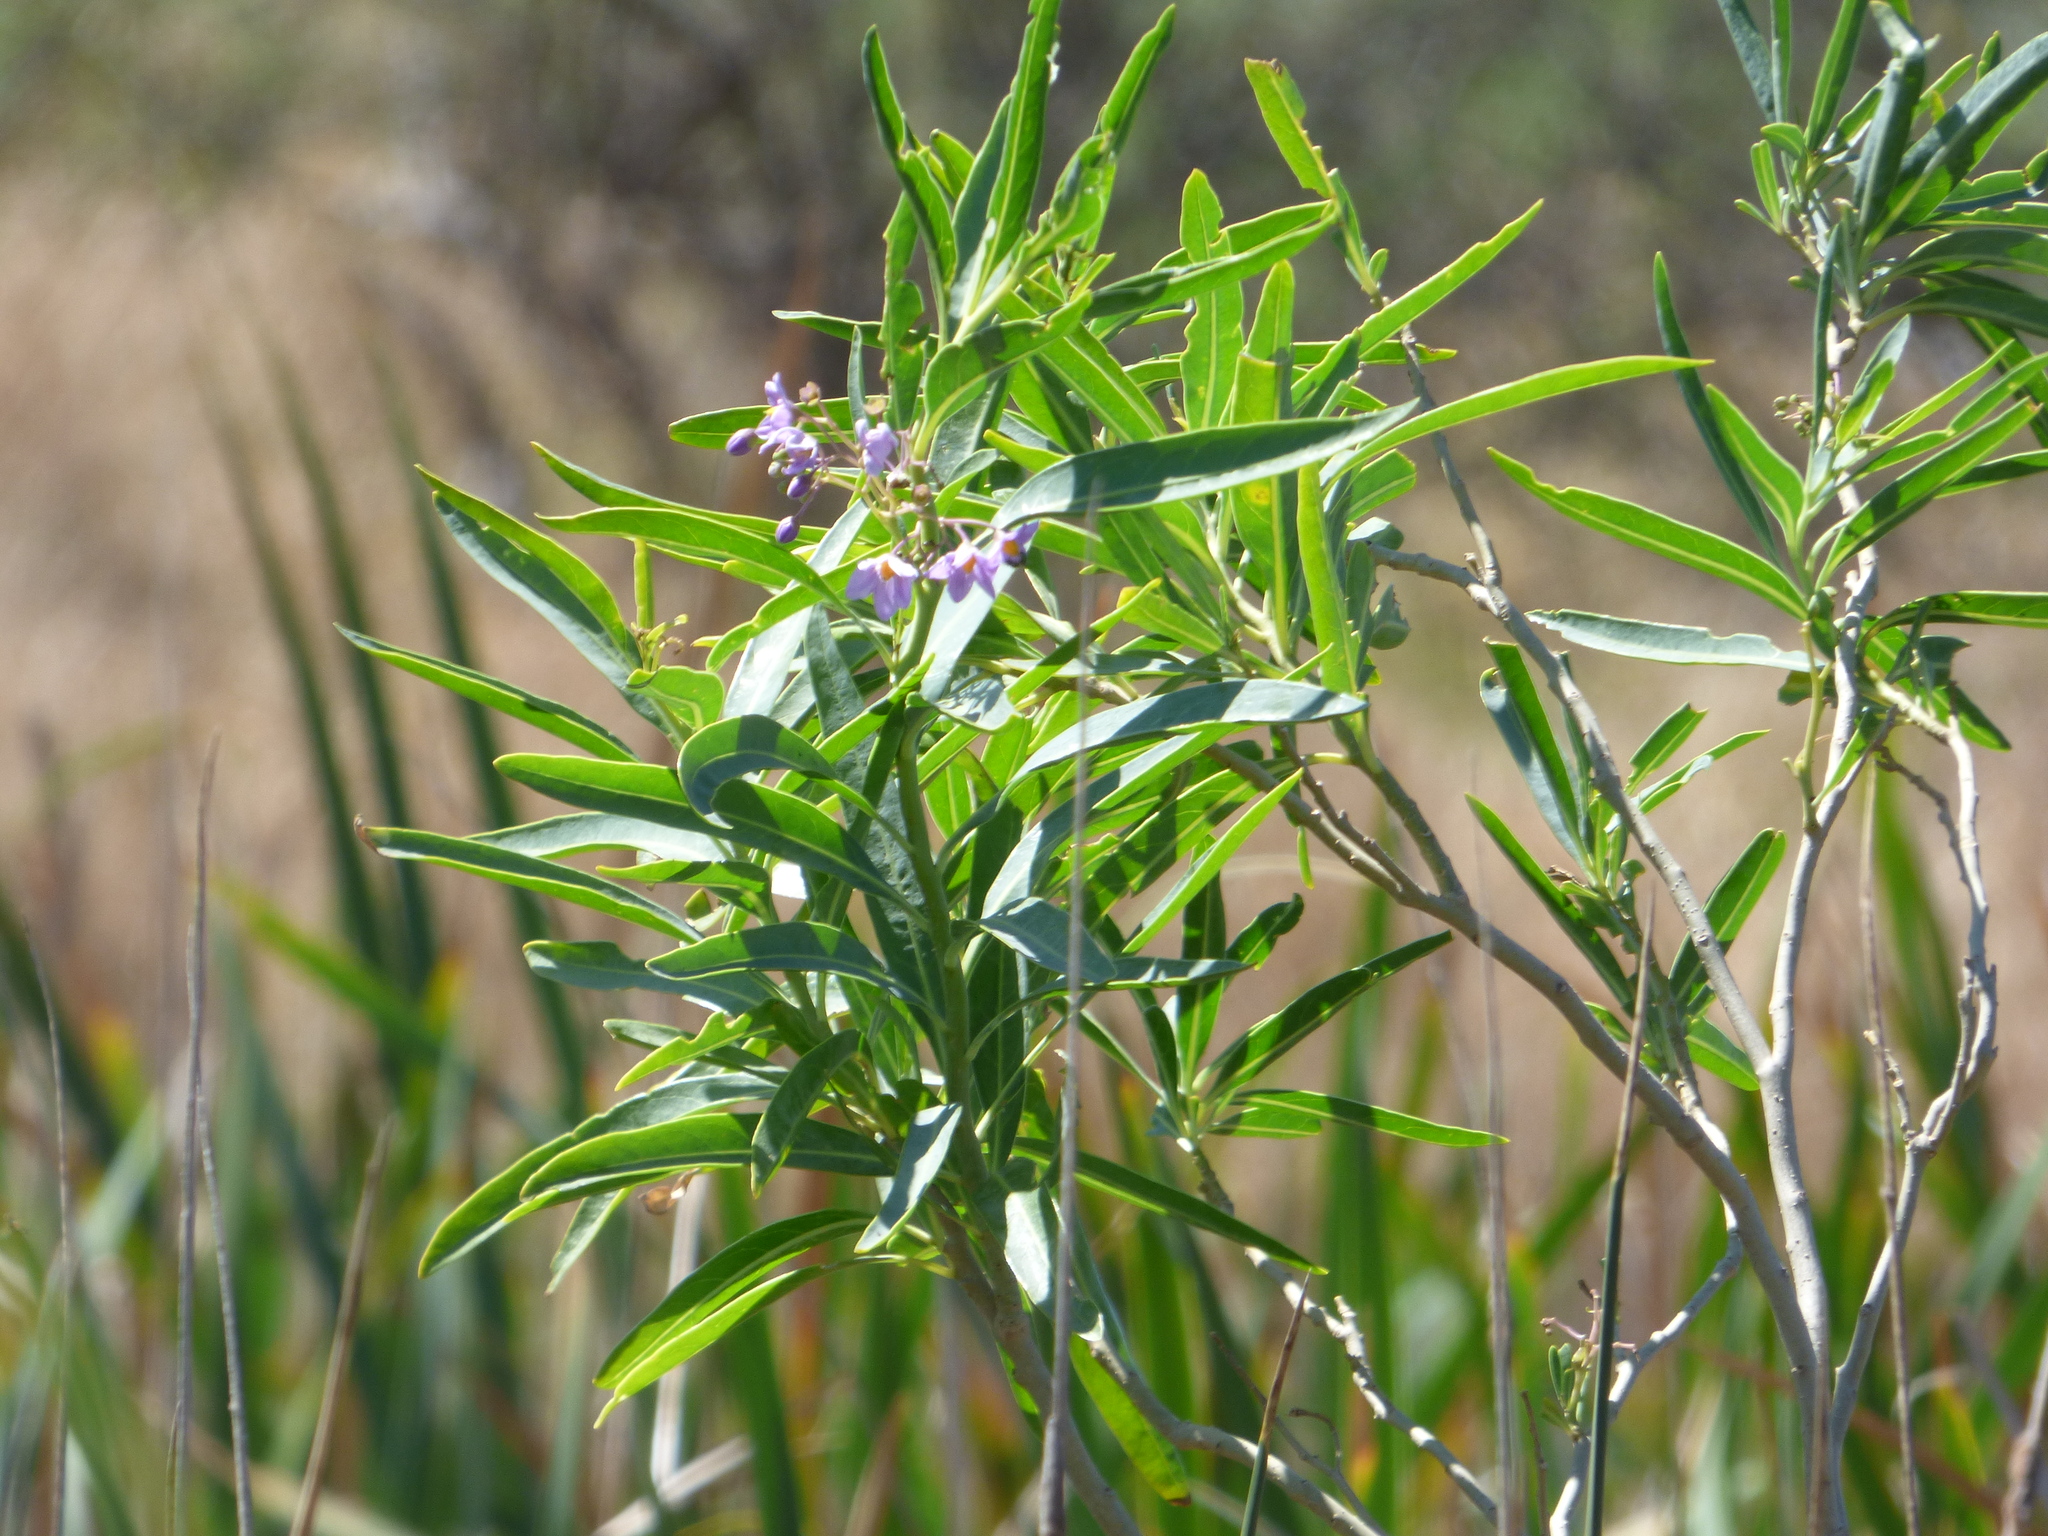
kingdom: Plantae
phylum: Tracheophyta
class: Magnoliopsida
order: Solanales
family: Solanaceae
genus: Solanum
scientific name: Solanum glaucophyllum
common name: Waxyleaf nightshade
